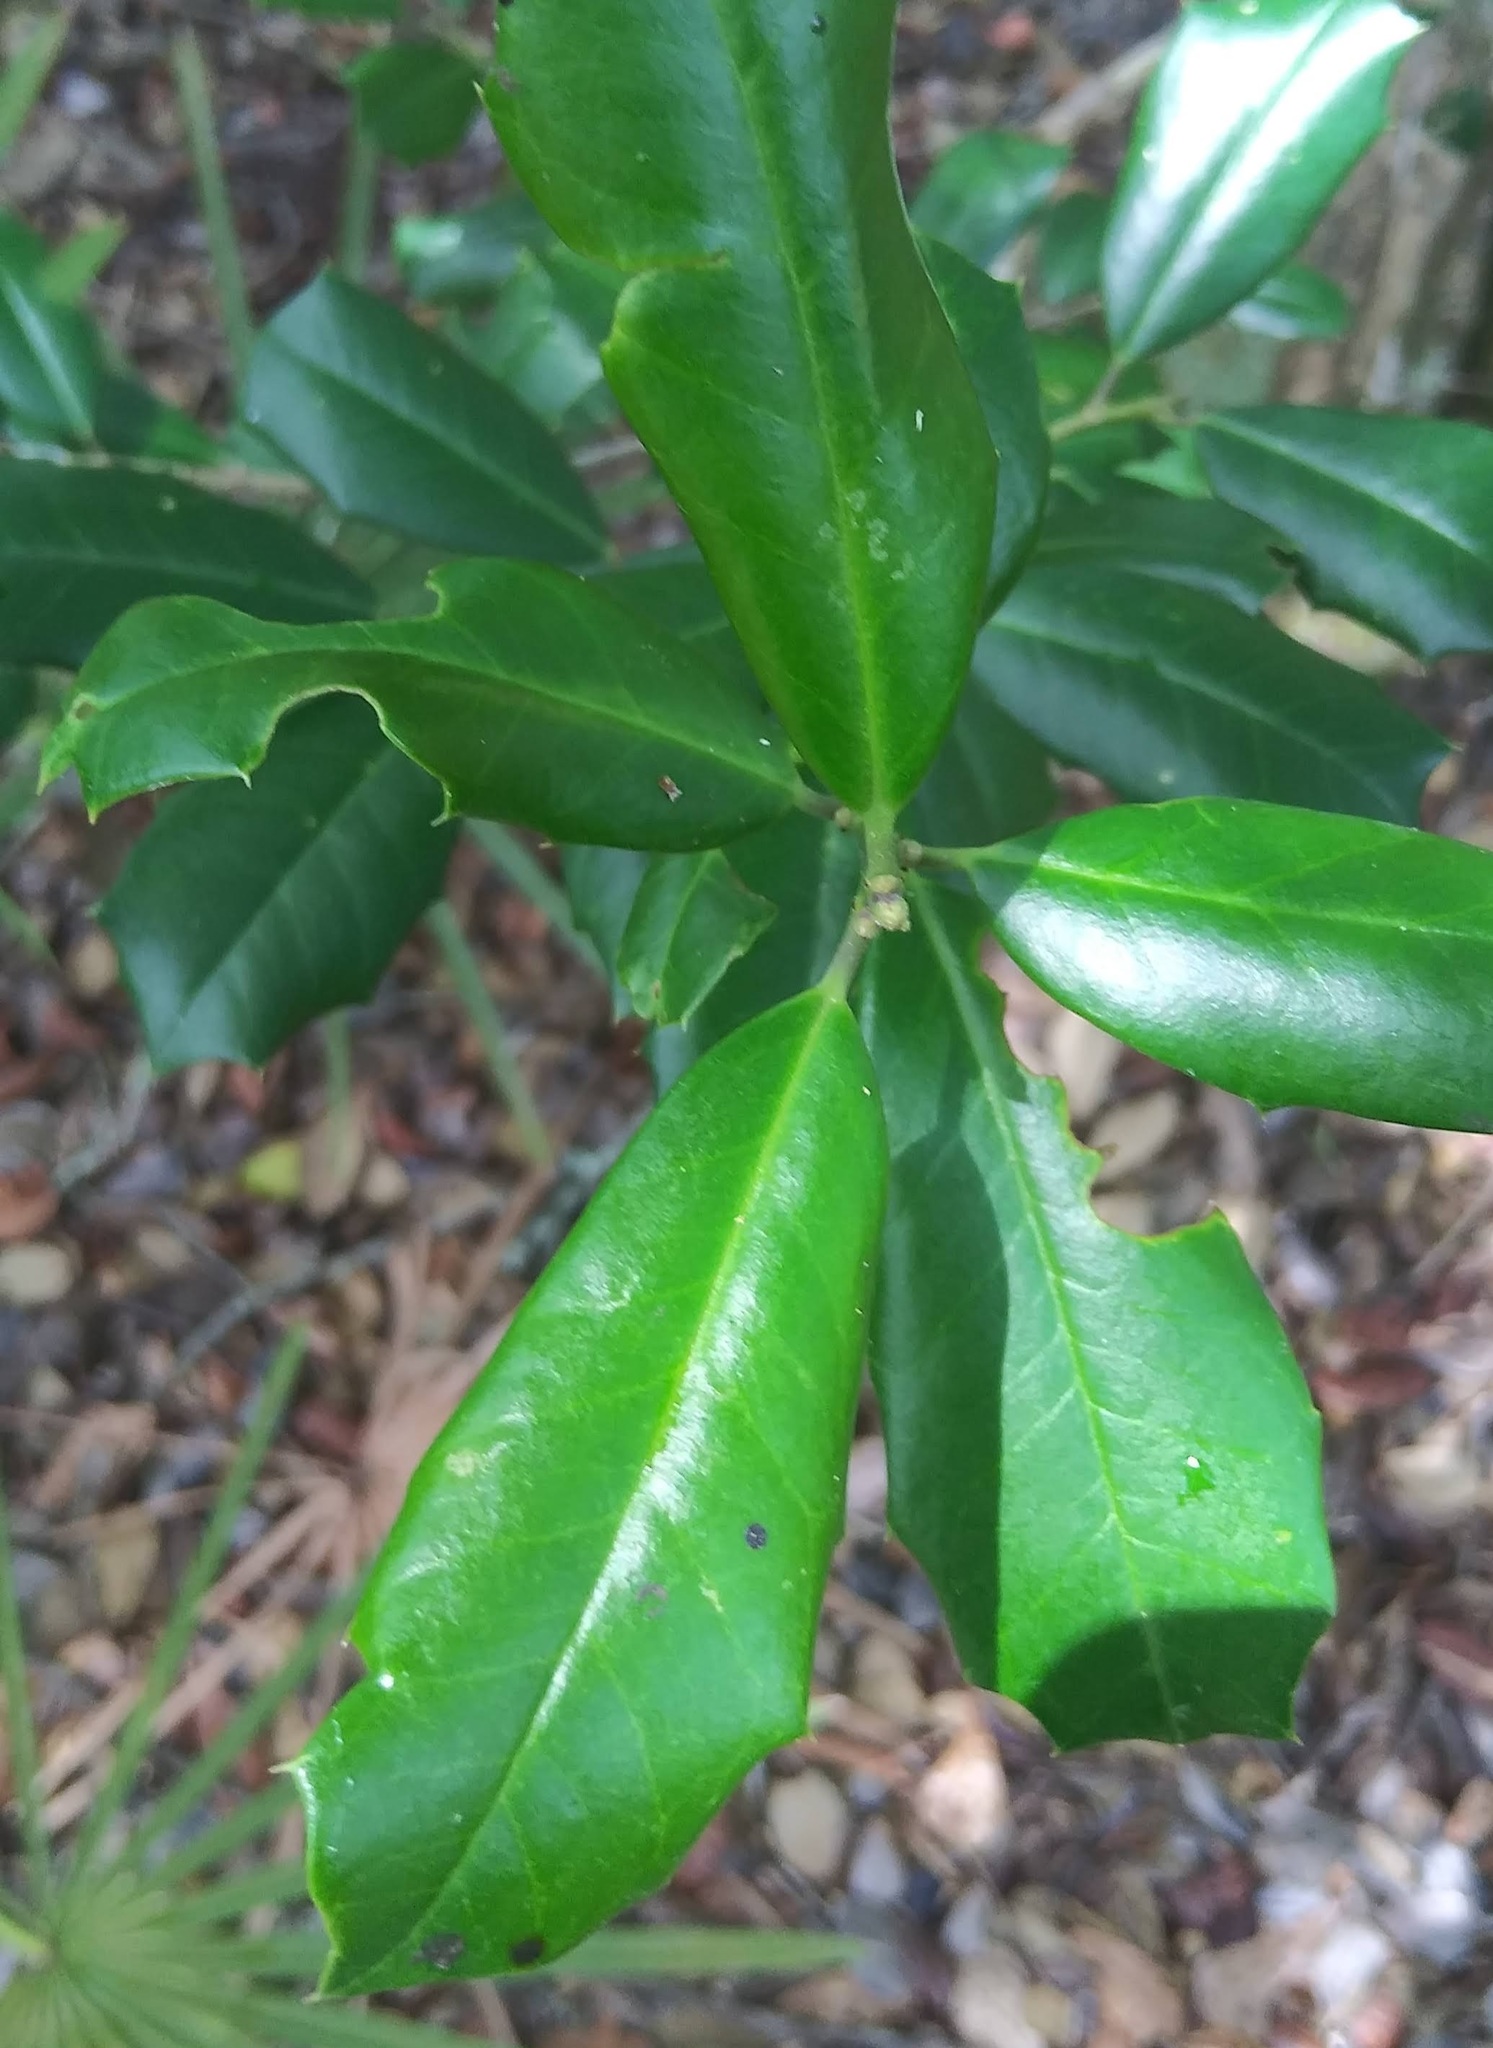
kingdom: Plantae
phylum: Tracheophyta
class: Magnoliopsida
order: Aquifoliales
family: Aquifoliaceae
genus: Ilex
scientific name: Ilex opaca
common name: American holly
